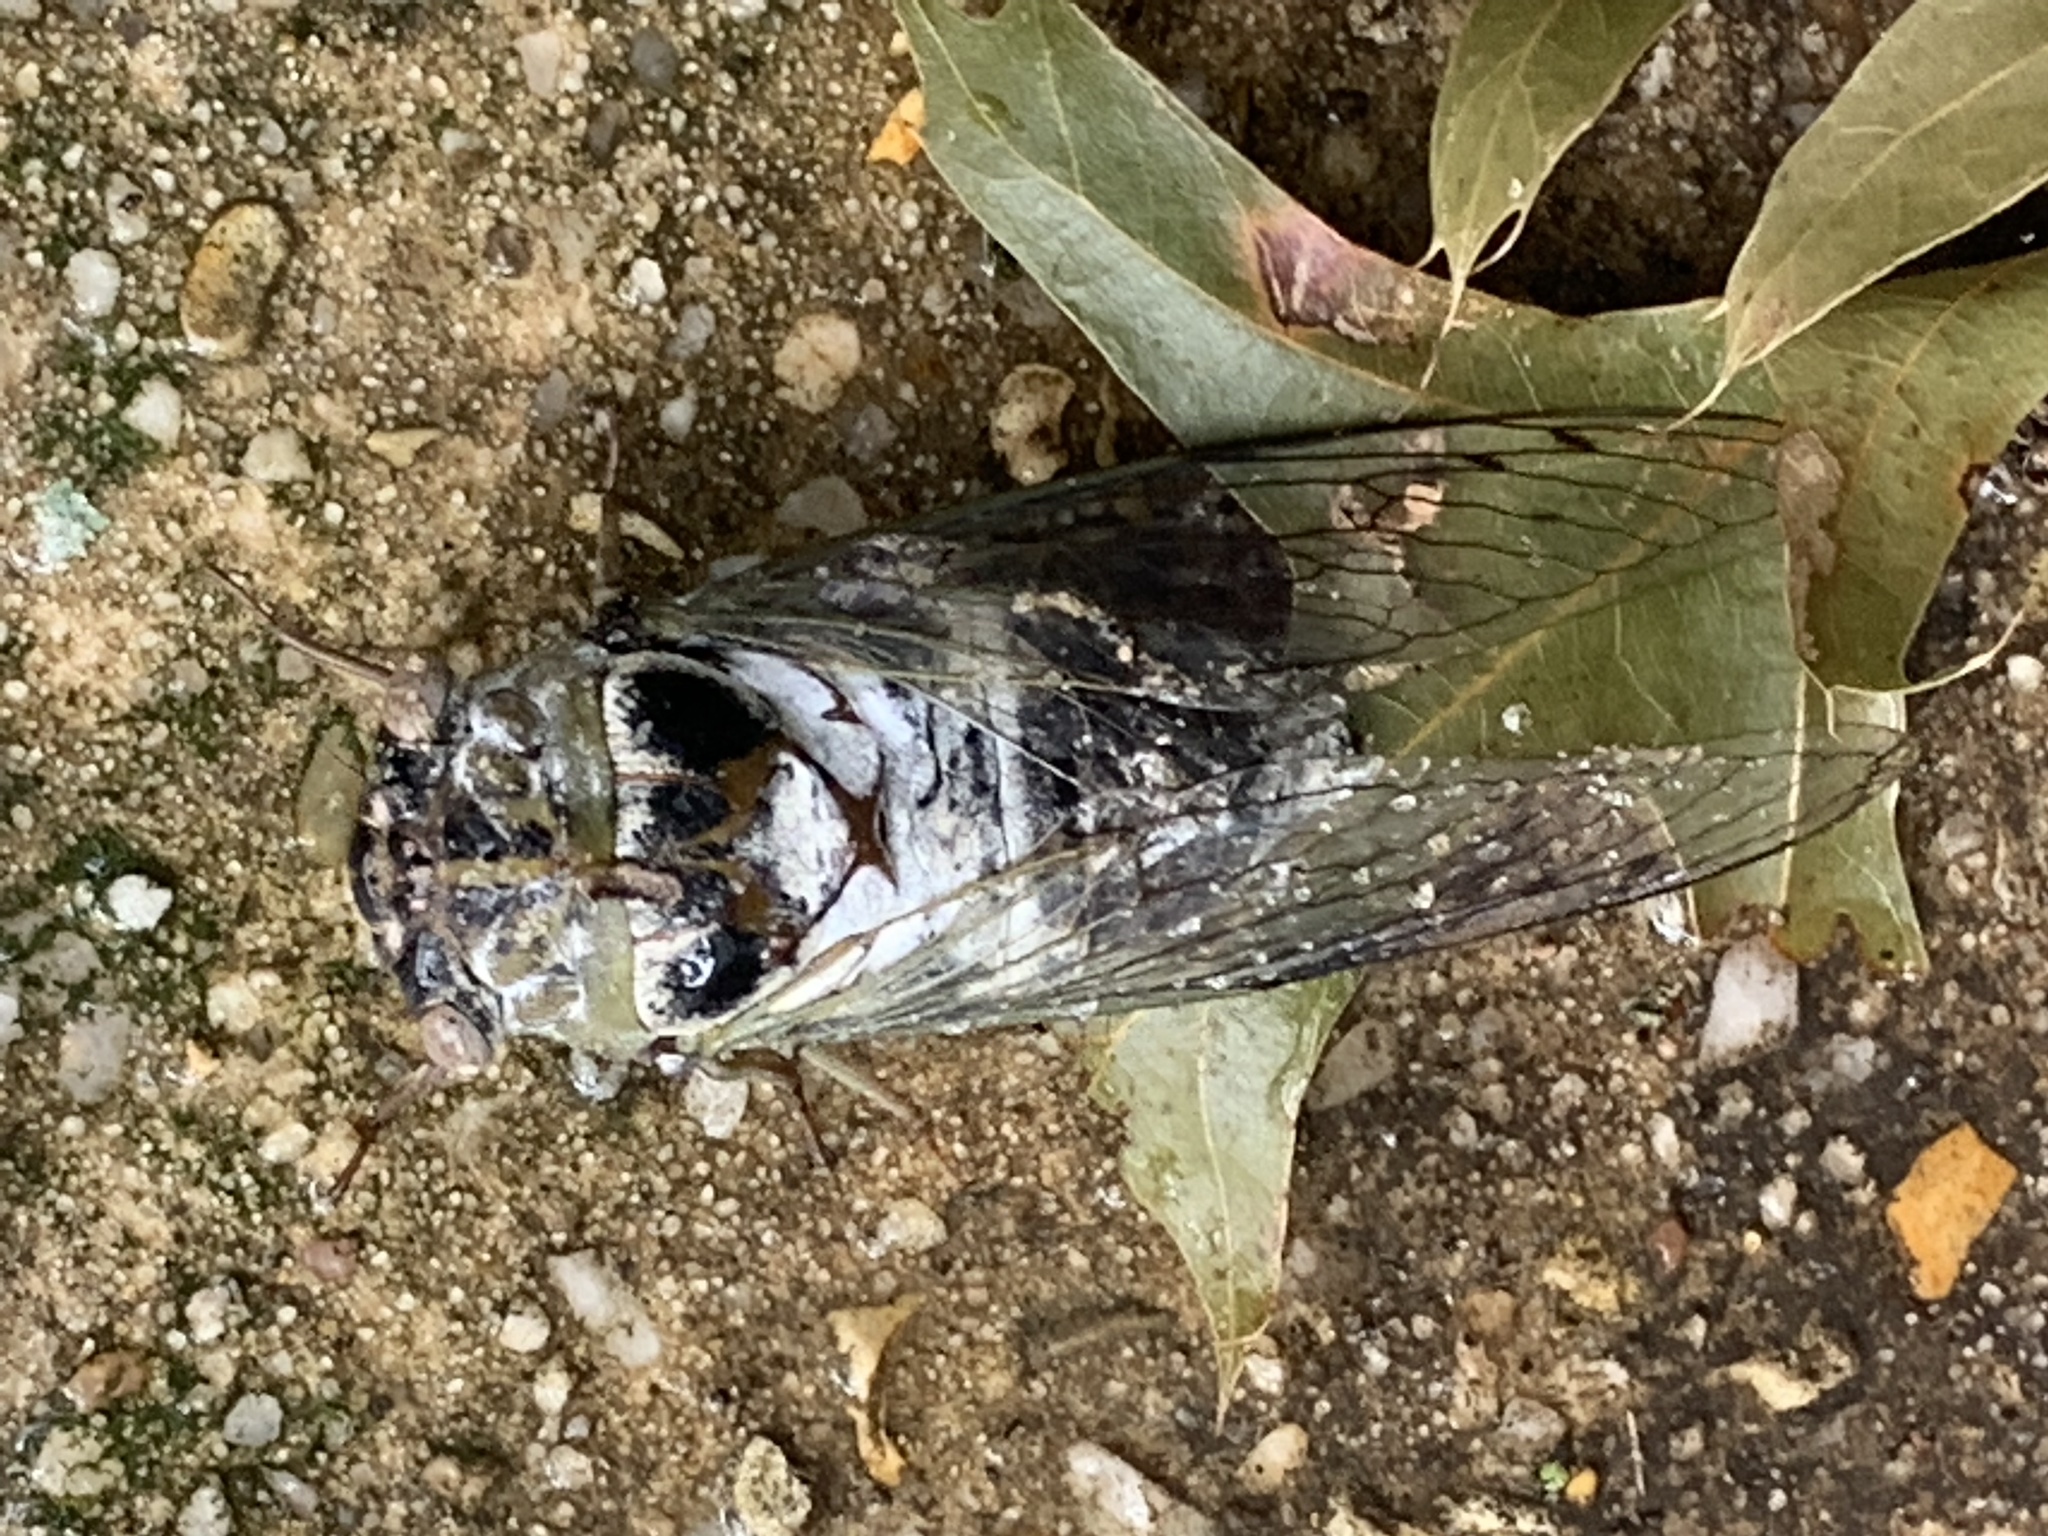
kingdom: Animalia
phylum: Arthropoda
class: Insecta
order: Hemiptera
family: Cicadidae
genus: Diceroprocta
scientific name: Diceroprocta grossa
